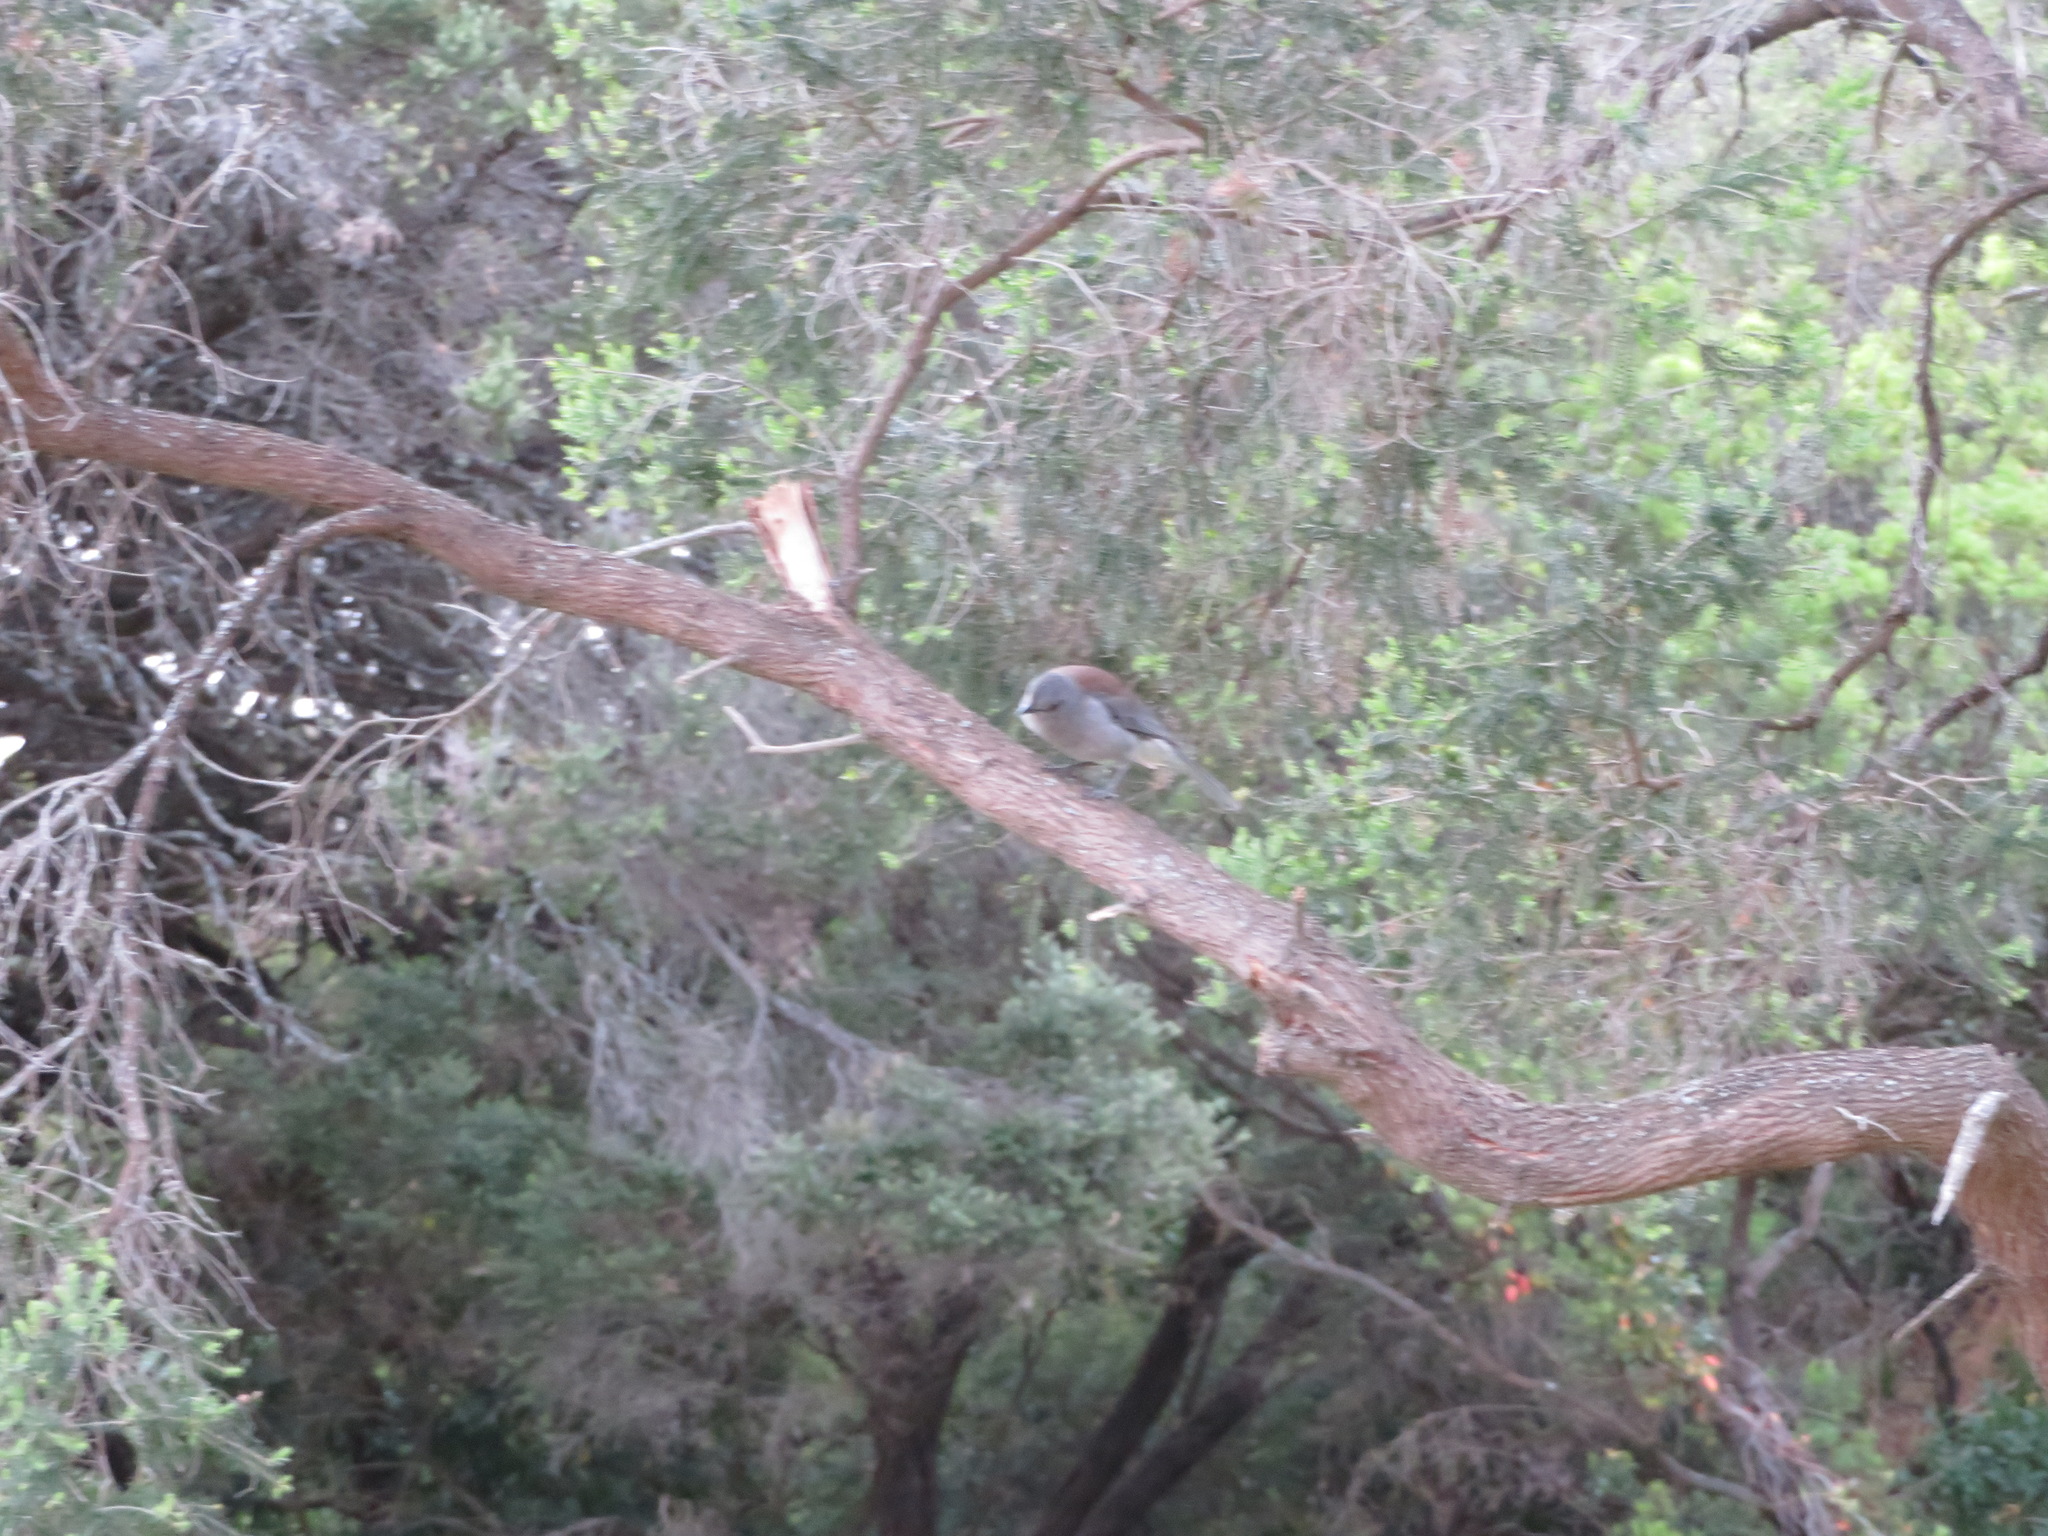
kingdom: Animalia
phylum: Chordata
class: Aves
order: Passeriformes
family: Pachycephalidae
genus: Colluricincla
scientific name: Colluricincla harmonica
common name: Grey shrikethrush
